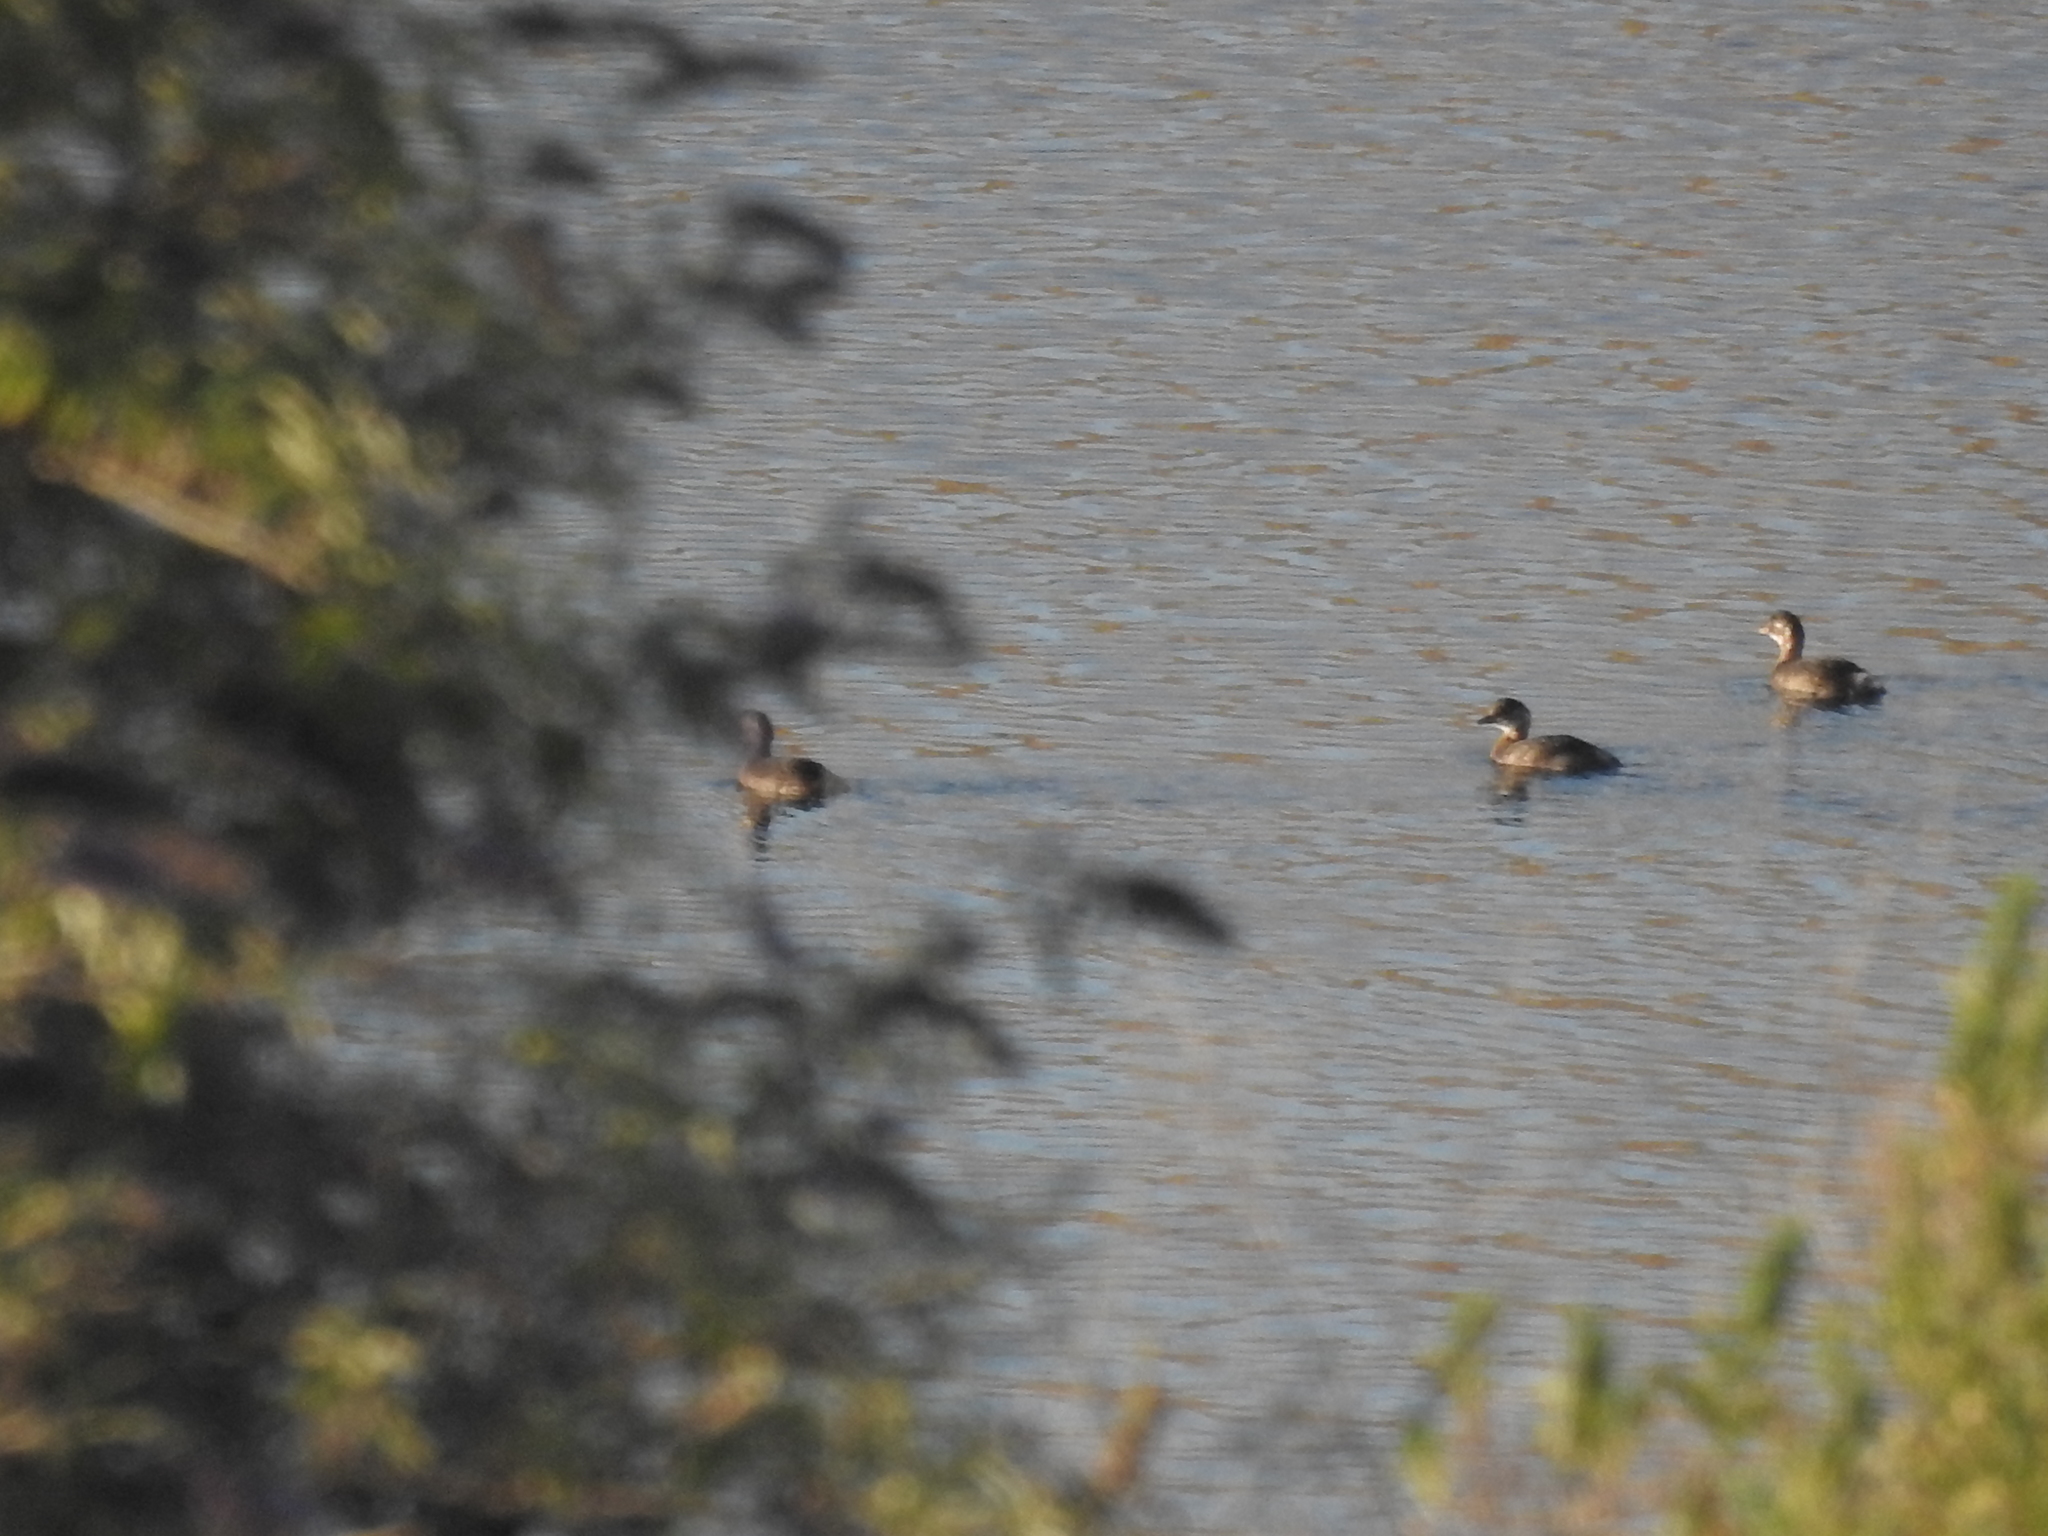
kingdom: Animalia
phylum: Chordata
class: Aves
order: Podicipediformes
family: Podicipedidae
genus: Tachybaptus
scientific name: Tachybaptus ruficollis
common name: Little grebe
